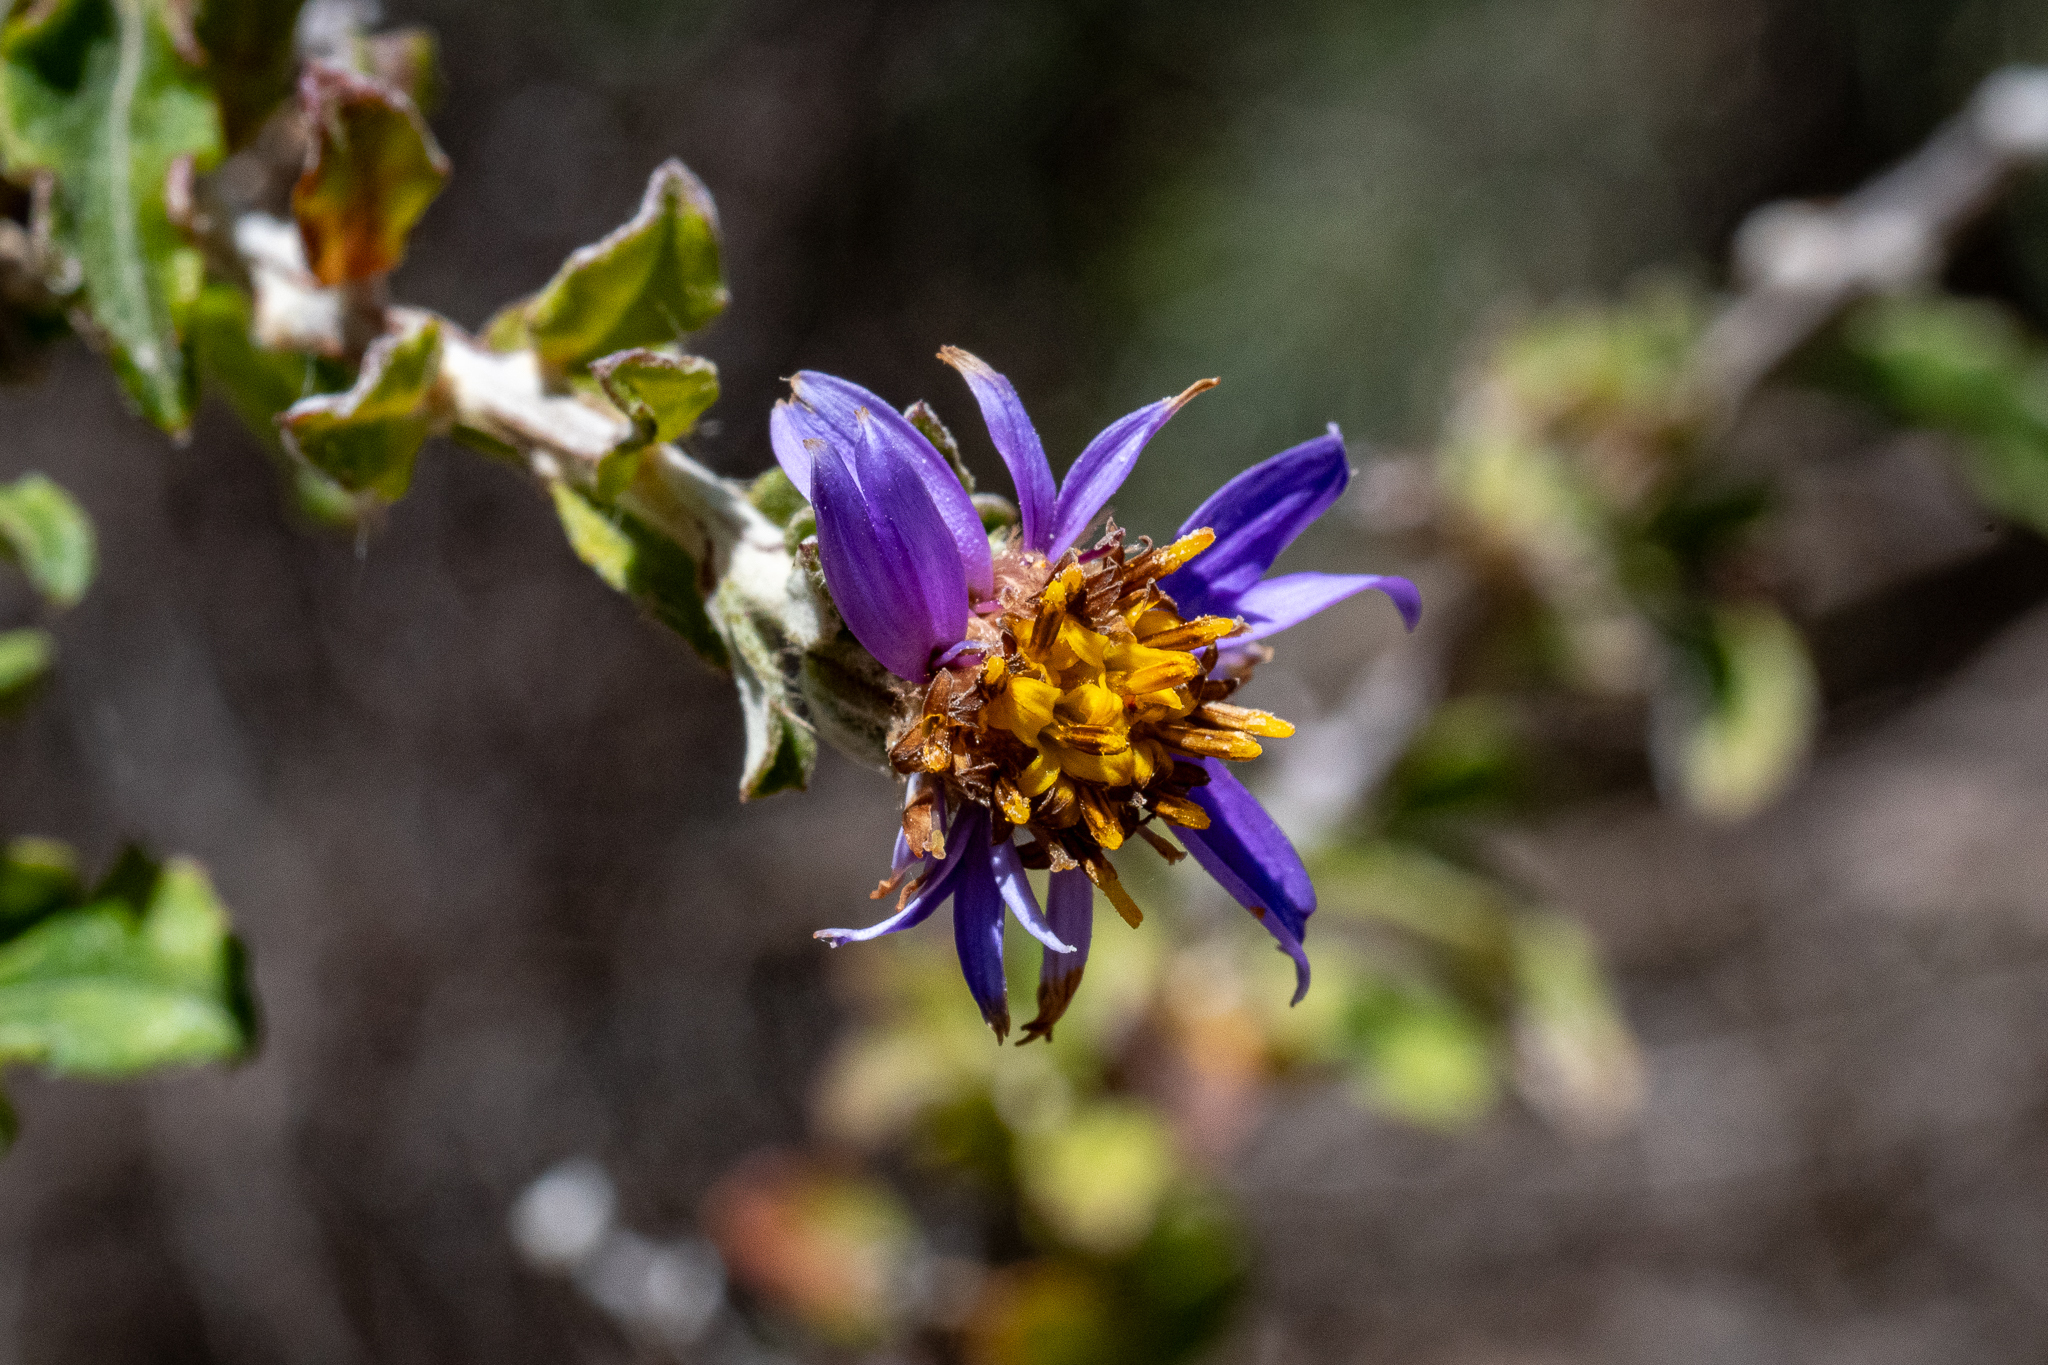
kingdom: Plantae
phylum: Tracheophyta
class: Magnoliopsida
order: Asterales
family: Asteraceae
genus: Printzia
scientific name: Printzia polifolia
